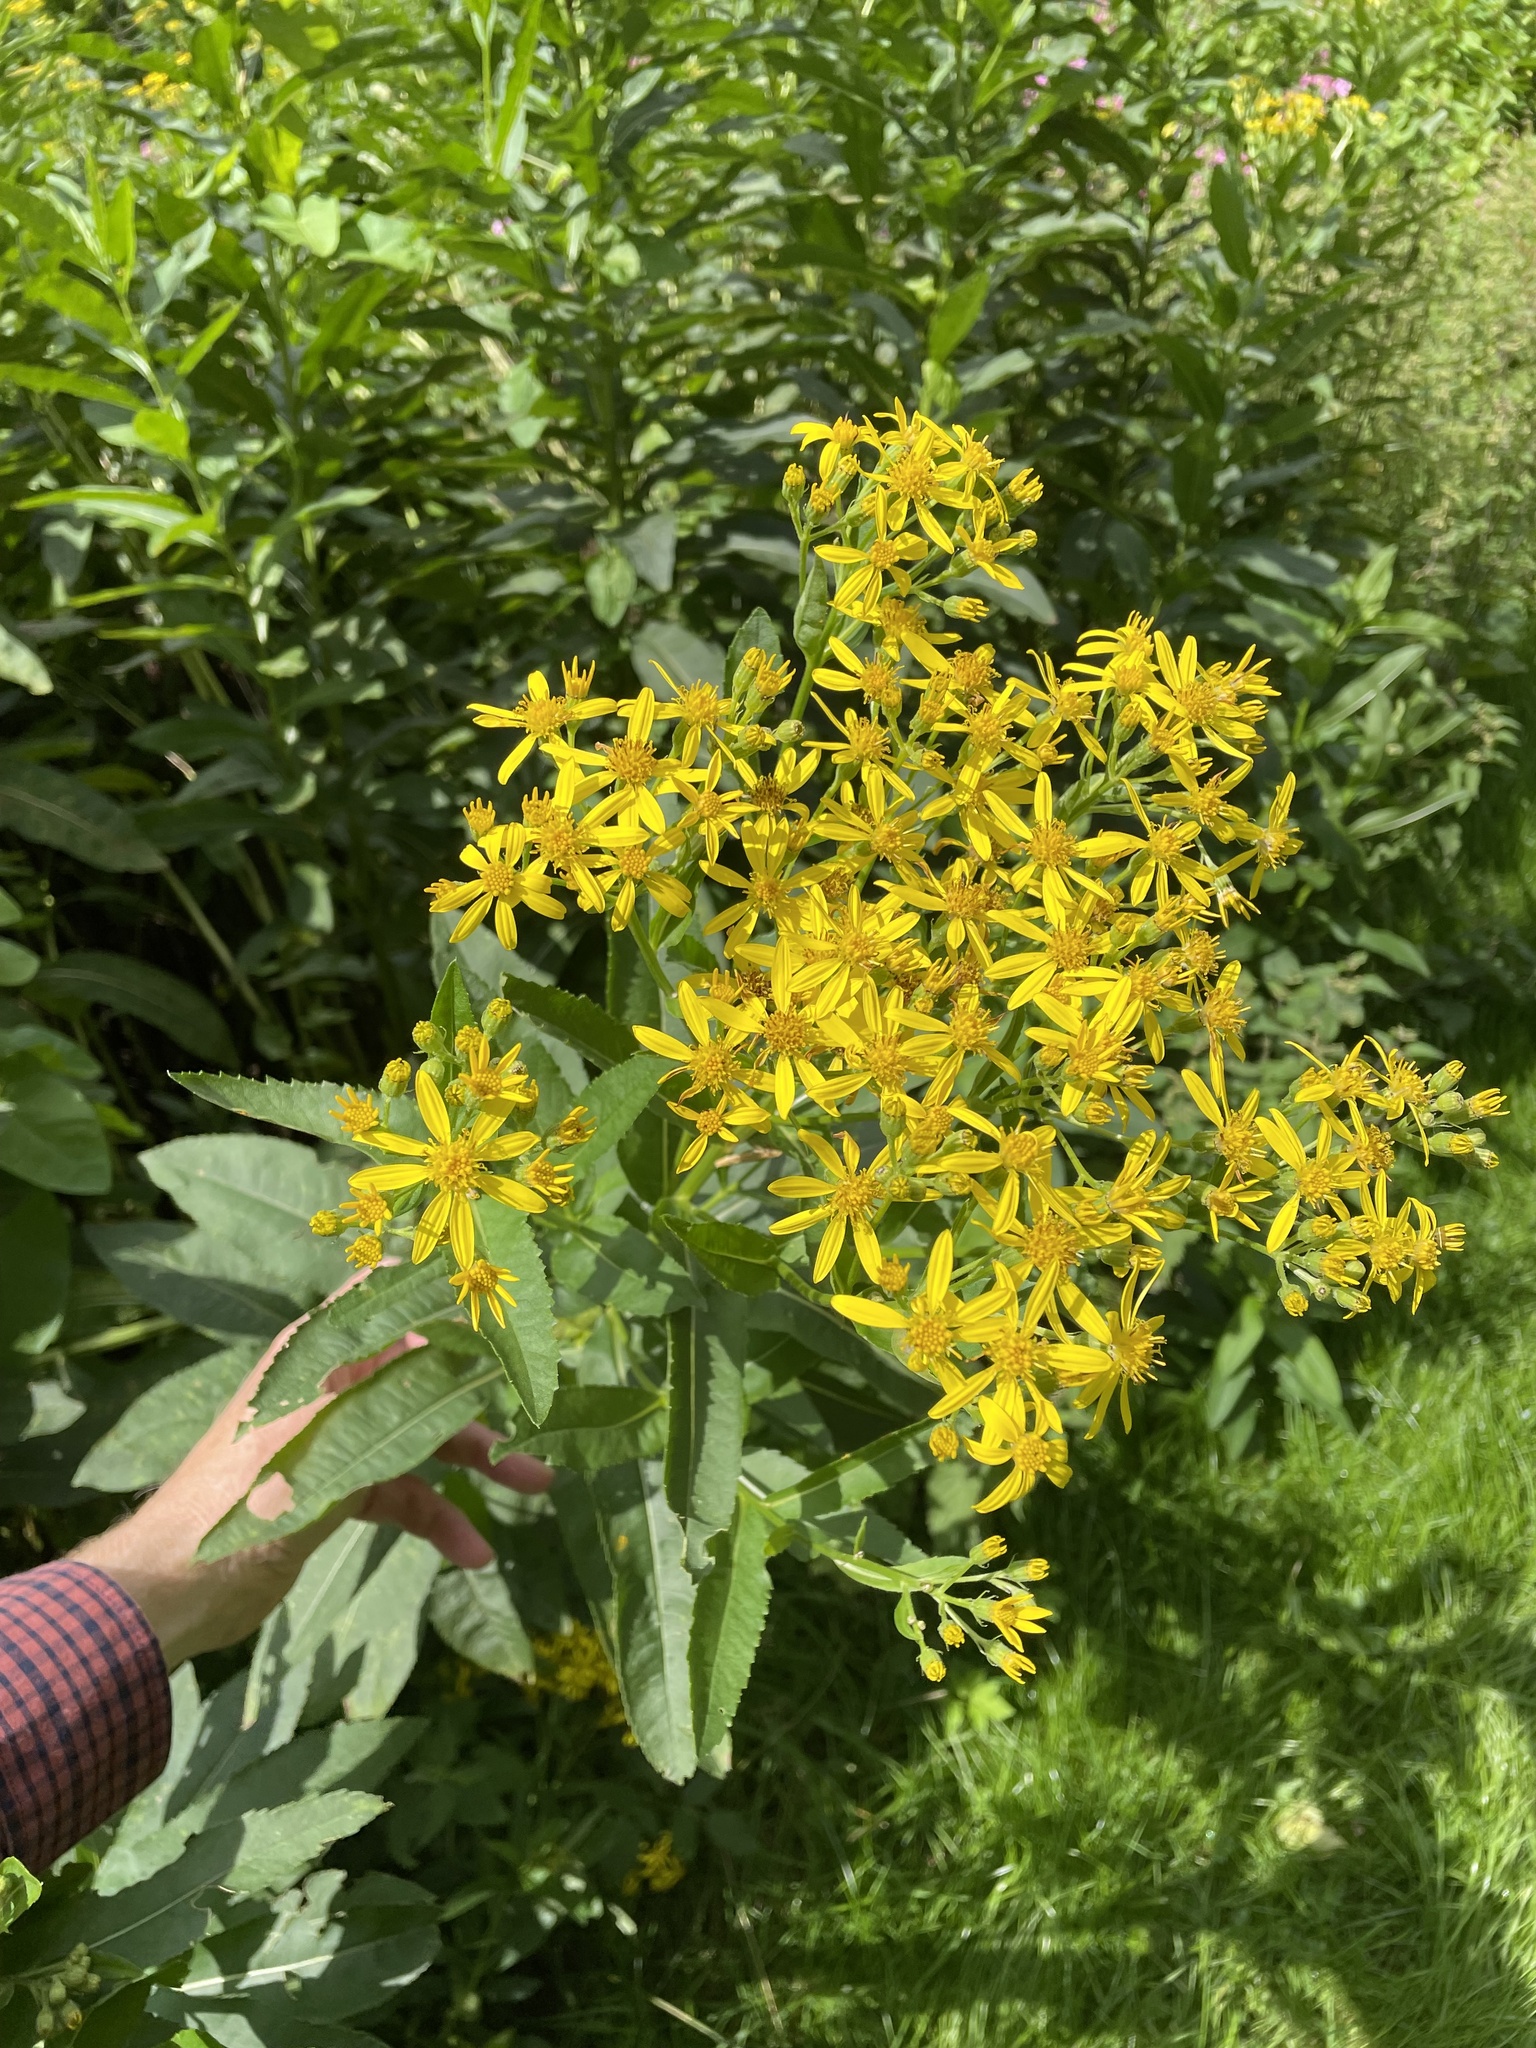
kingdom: Plantae
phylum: Tracheophyta
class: Magnoliopsida
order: Asterales
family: Asteraceae
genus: Senecio
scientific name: Senecio sarracenicus
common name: Broad-leaved ragwort
